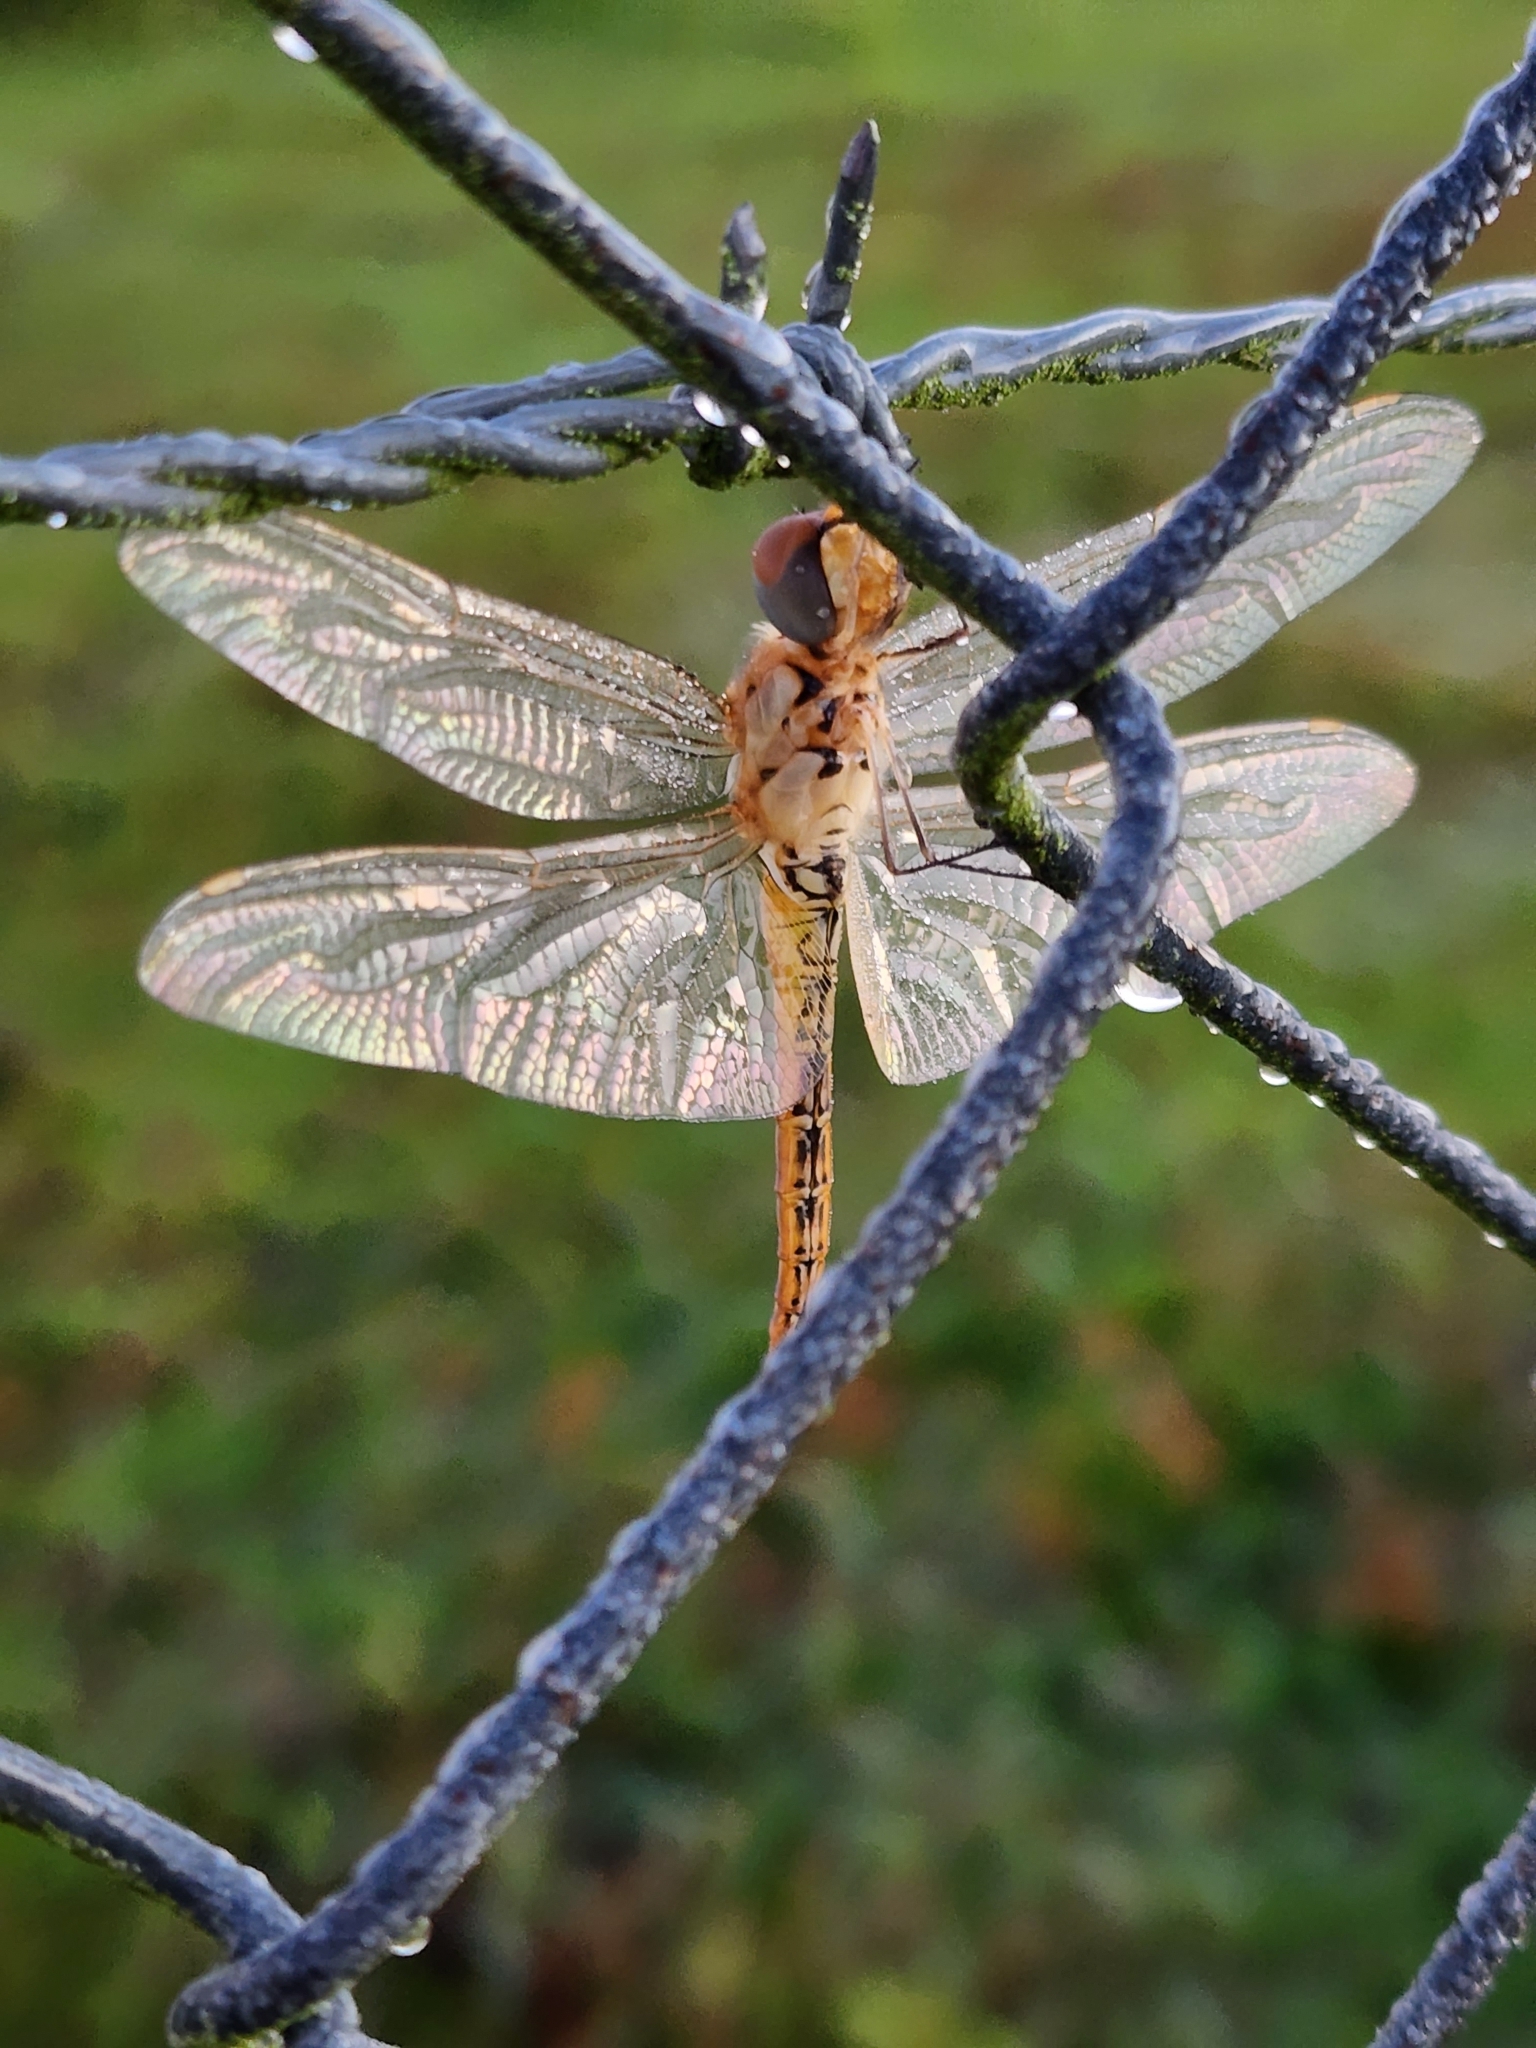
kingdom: Animalia
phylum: Arthropoda
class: Insecta
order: Odonata
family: Libellulidae
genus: Pantala
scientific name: Pantala flavescens
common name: Wandering glider
